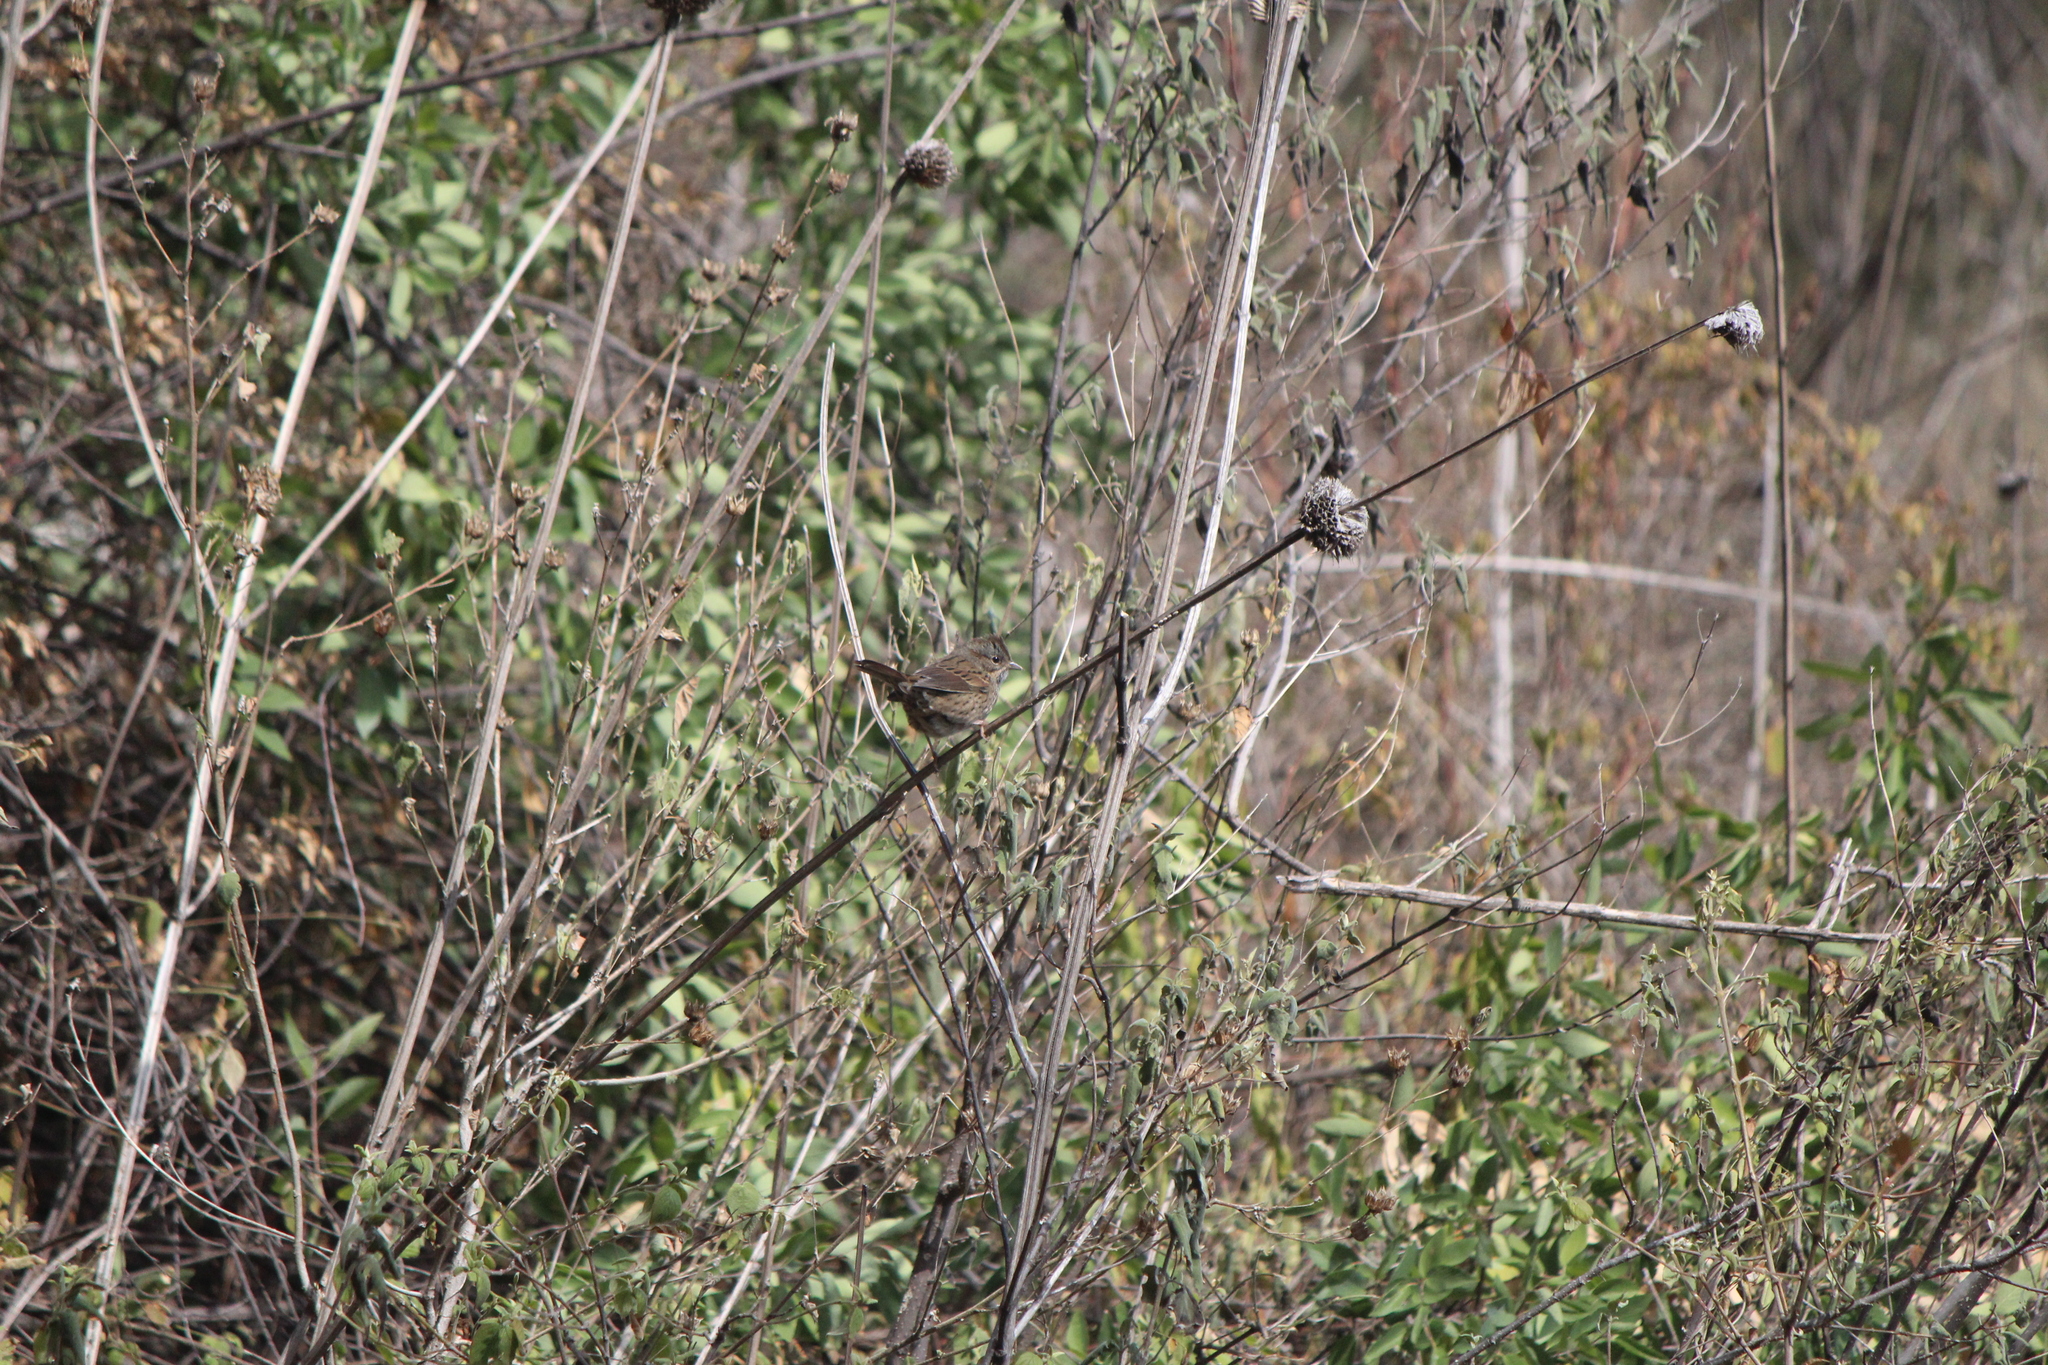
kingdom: Animalia
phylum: Chordata
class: Aves
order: Passeriformes
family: Passerellidae
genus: Melospiza
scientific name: Melospiza lincolnii
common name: Lincoln's sparrow
